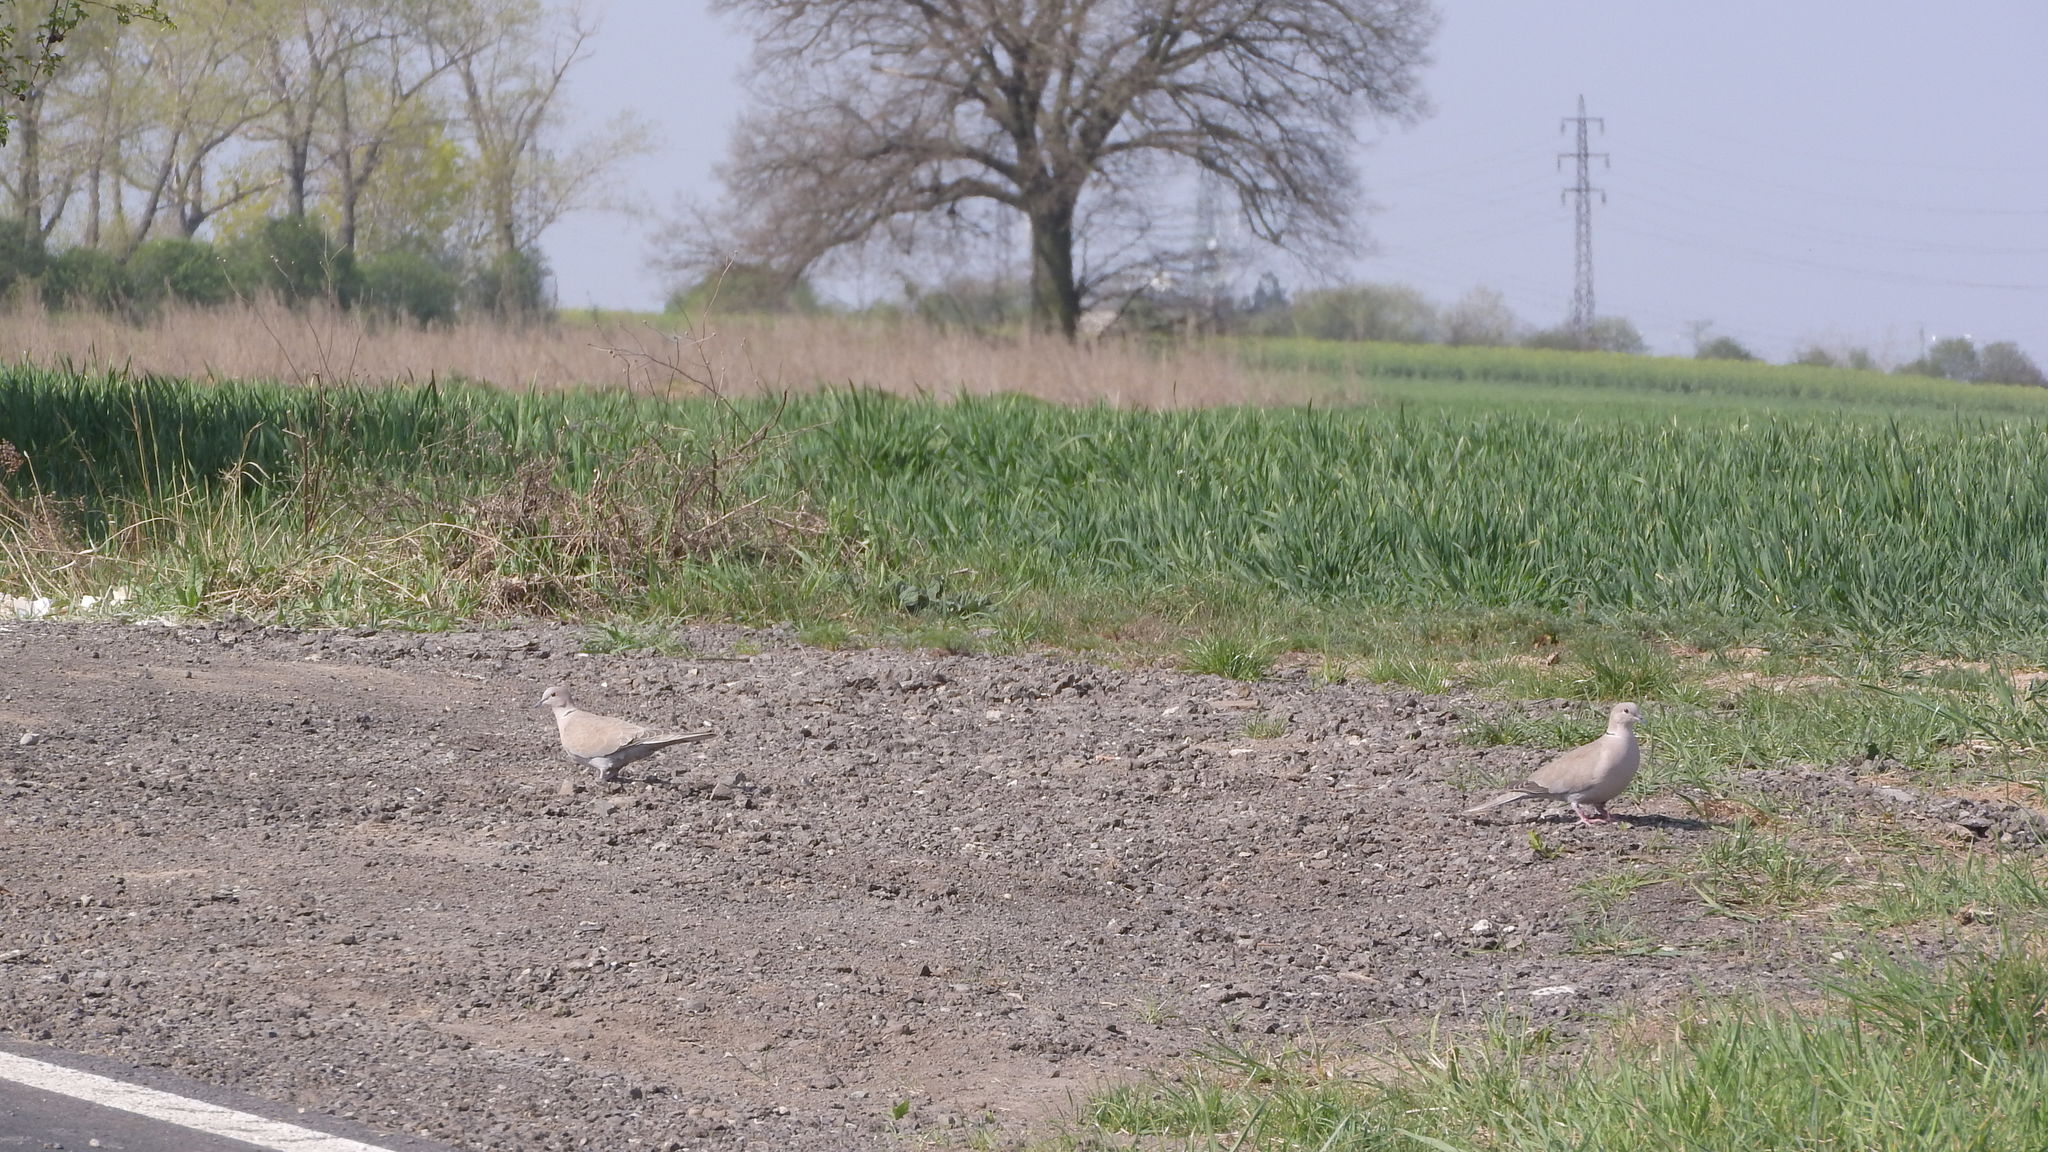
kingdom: Animalia
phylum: Chordata
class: Aves
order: Columbiformes
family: Columbidae
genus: Streptopelia
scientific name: Streptopelia decaocto
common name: Eurasian collared dove
